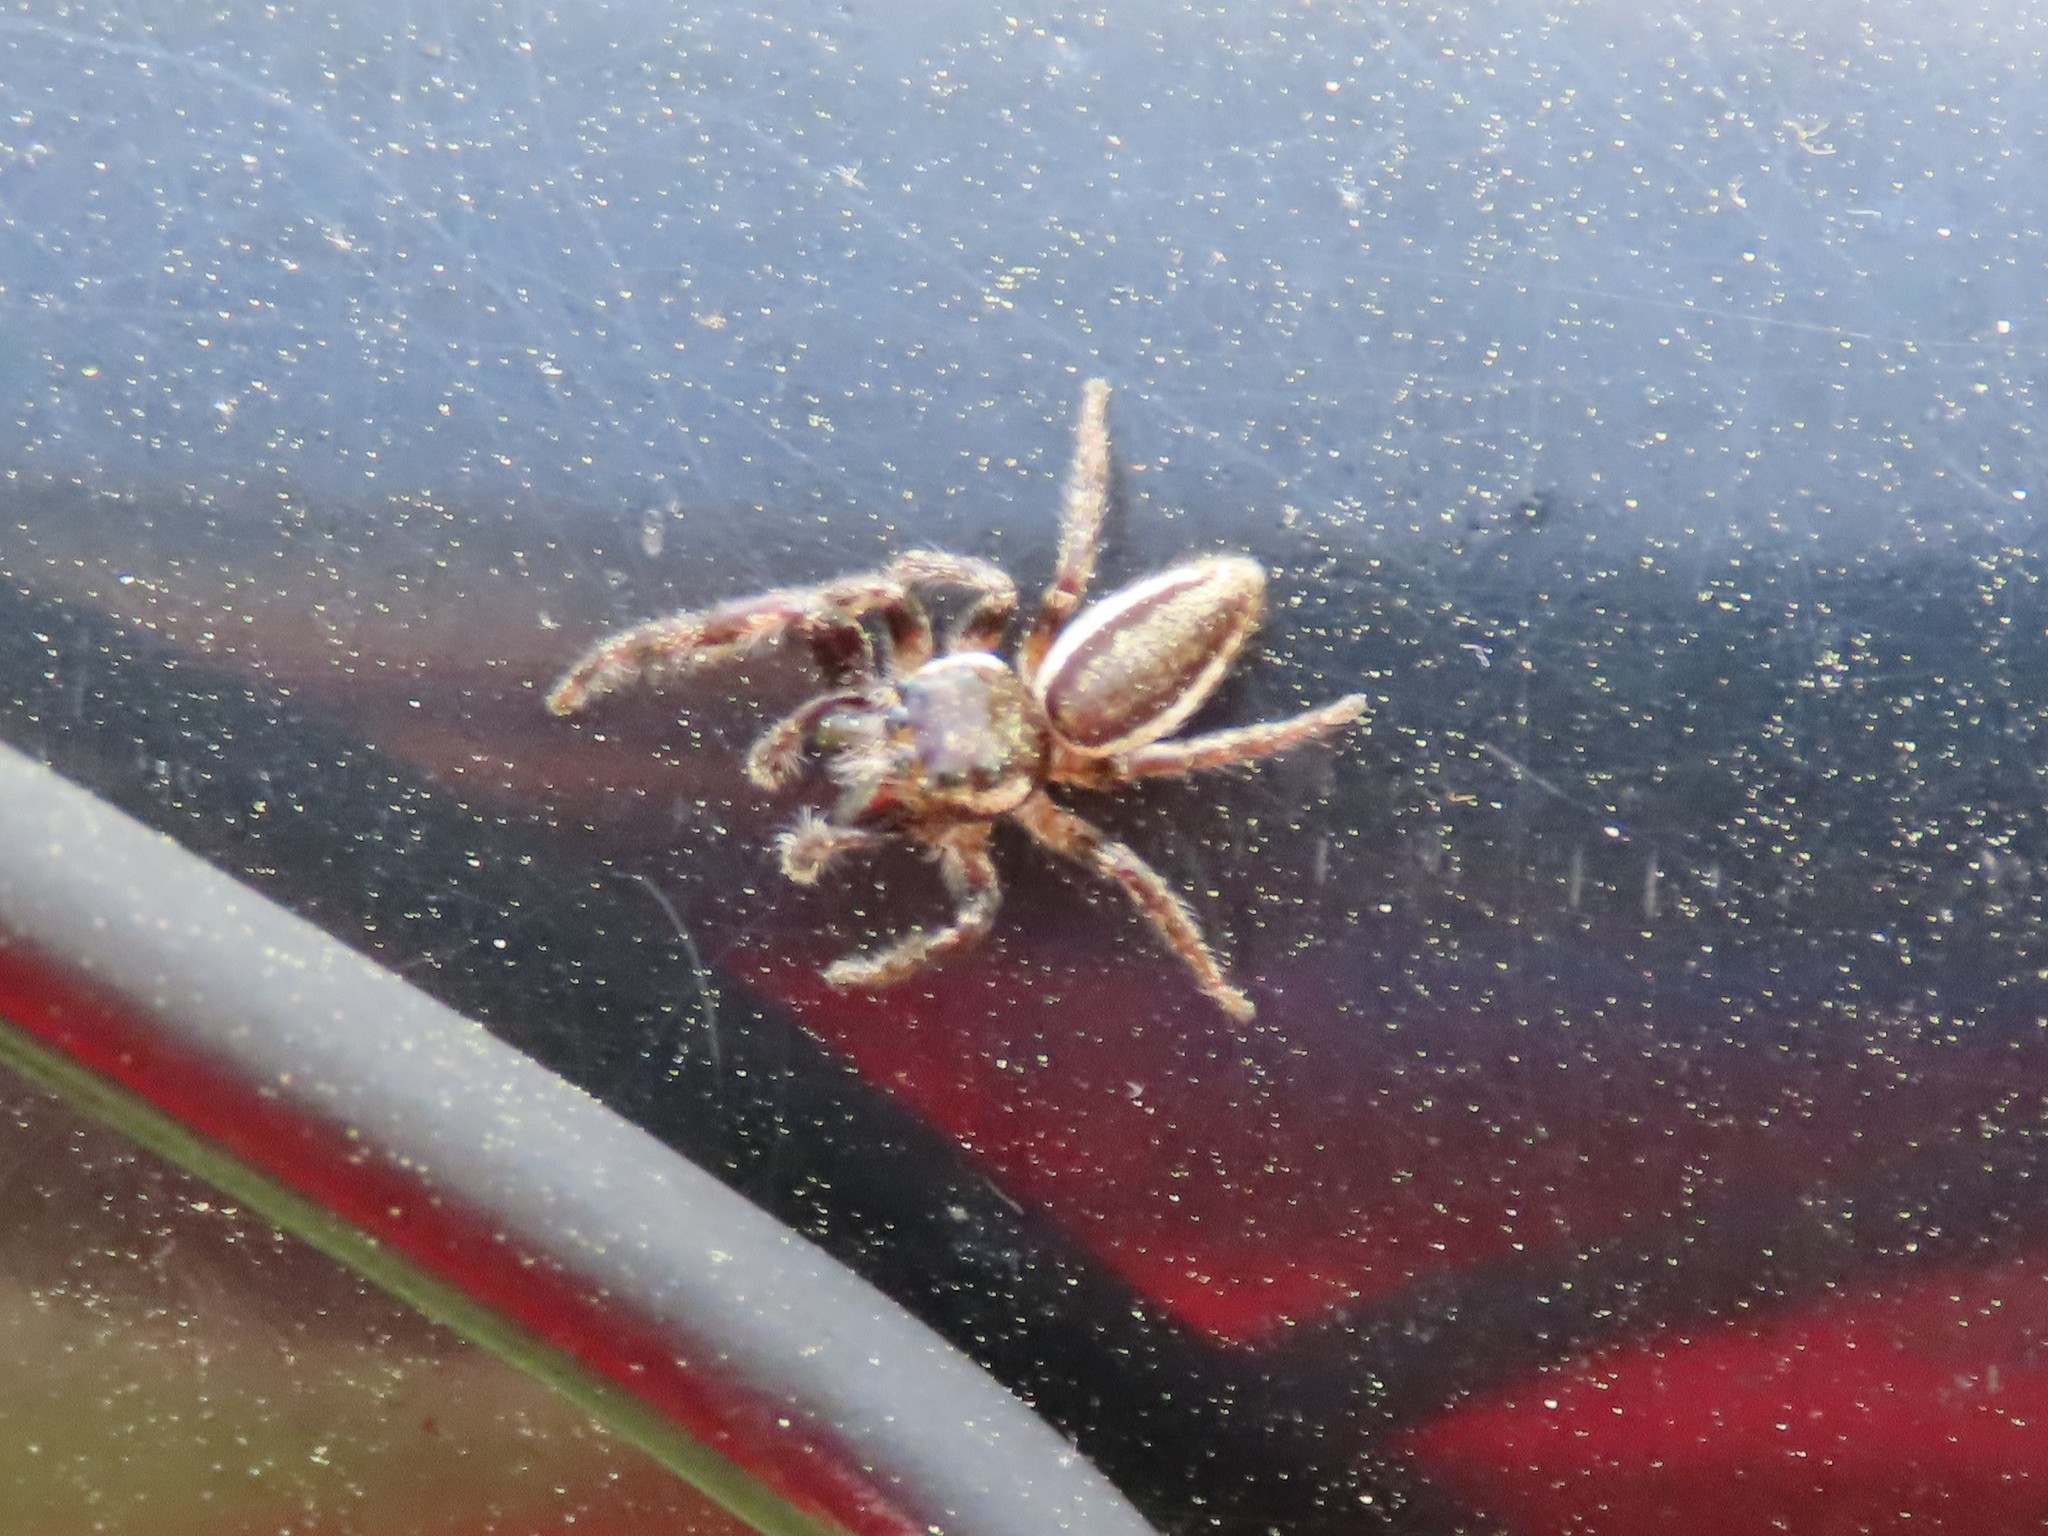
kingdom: Animalia
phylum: Arthropoda
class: Arachnida
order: Araneae
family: Salticidae
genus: Eris
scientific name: Eris militaris
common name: Bronze jumper
